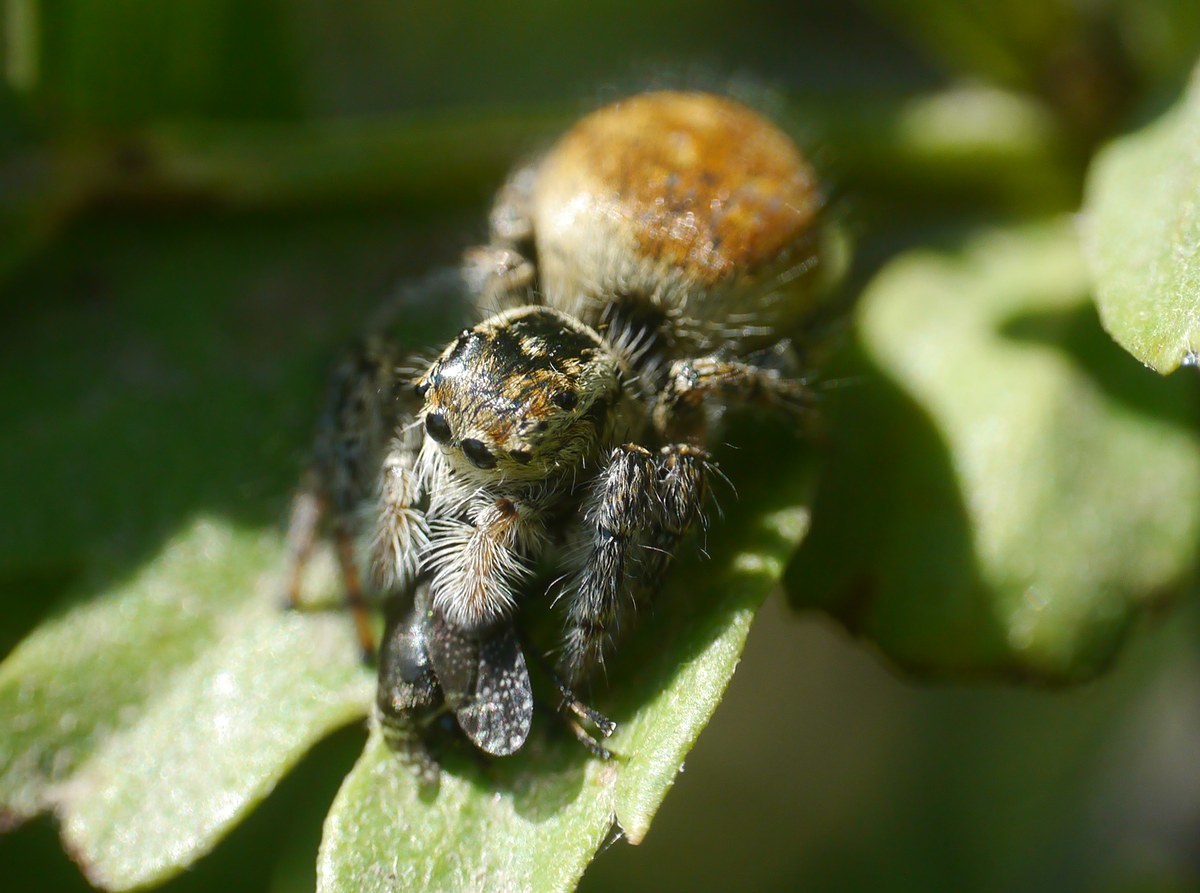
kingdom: Animalia
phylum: Arthropoda
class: Arachnida
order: Araneae
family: Salticidae
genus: Carrhotus
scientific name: Carrhotus xanthogramma
